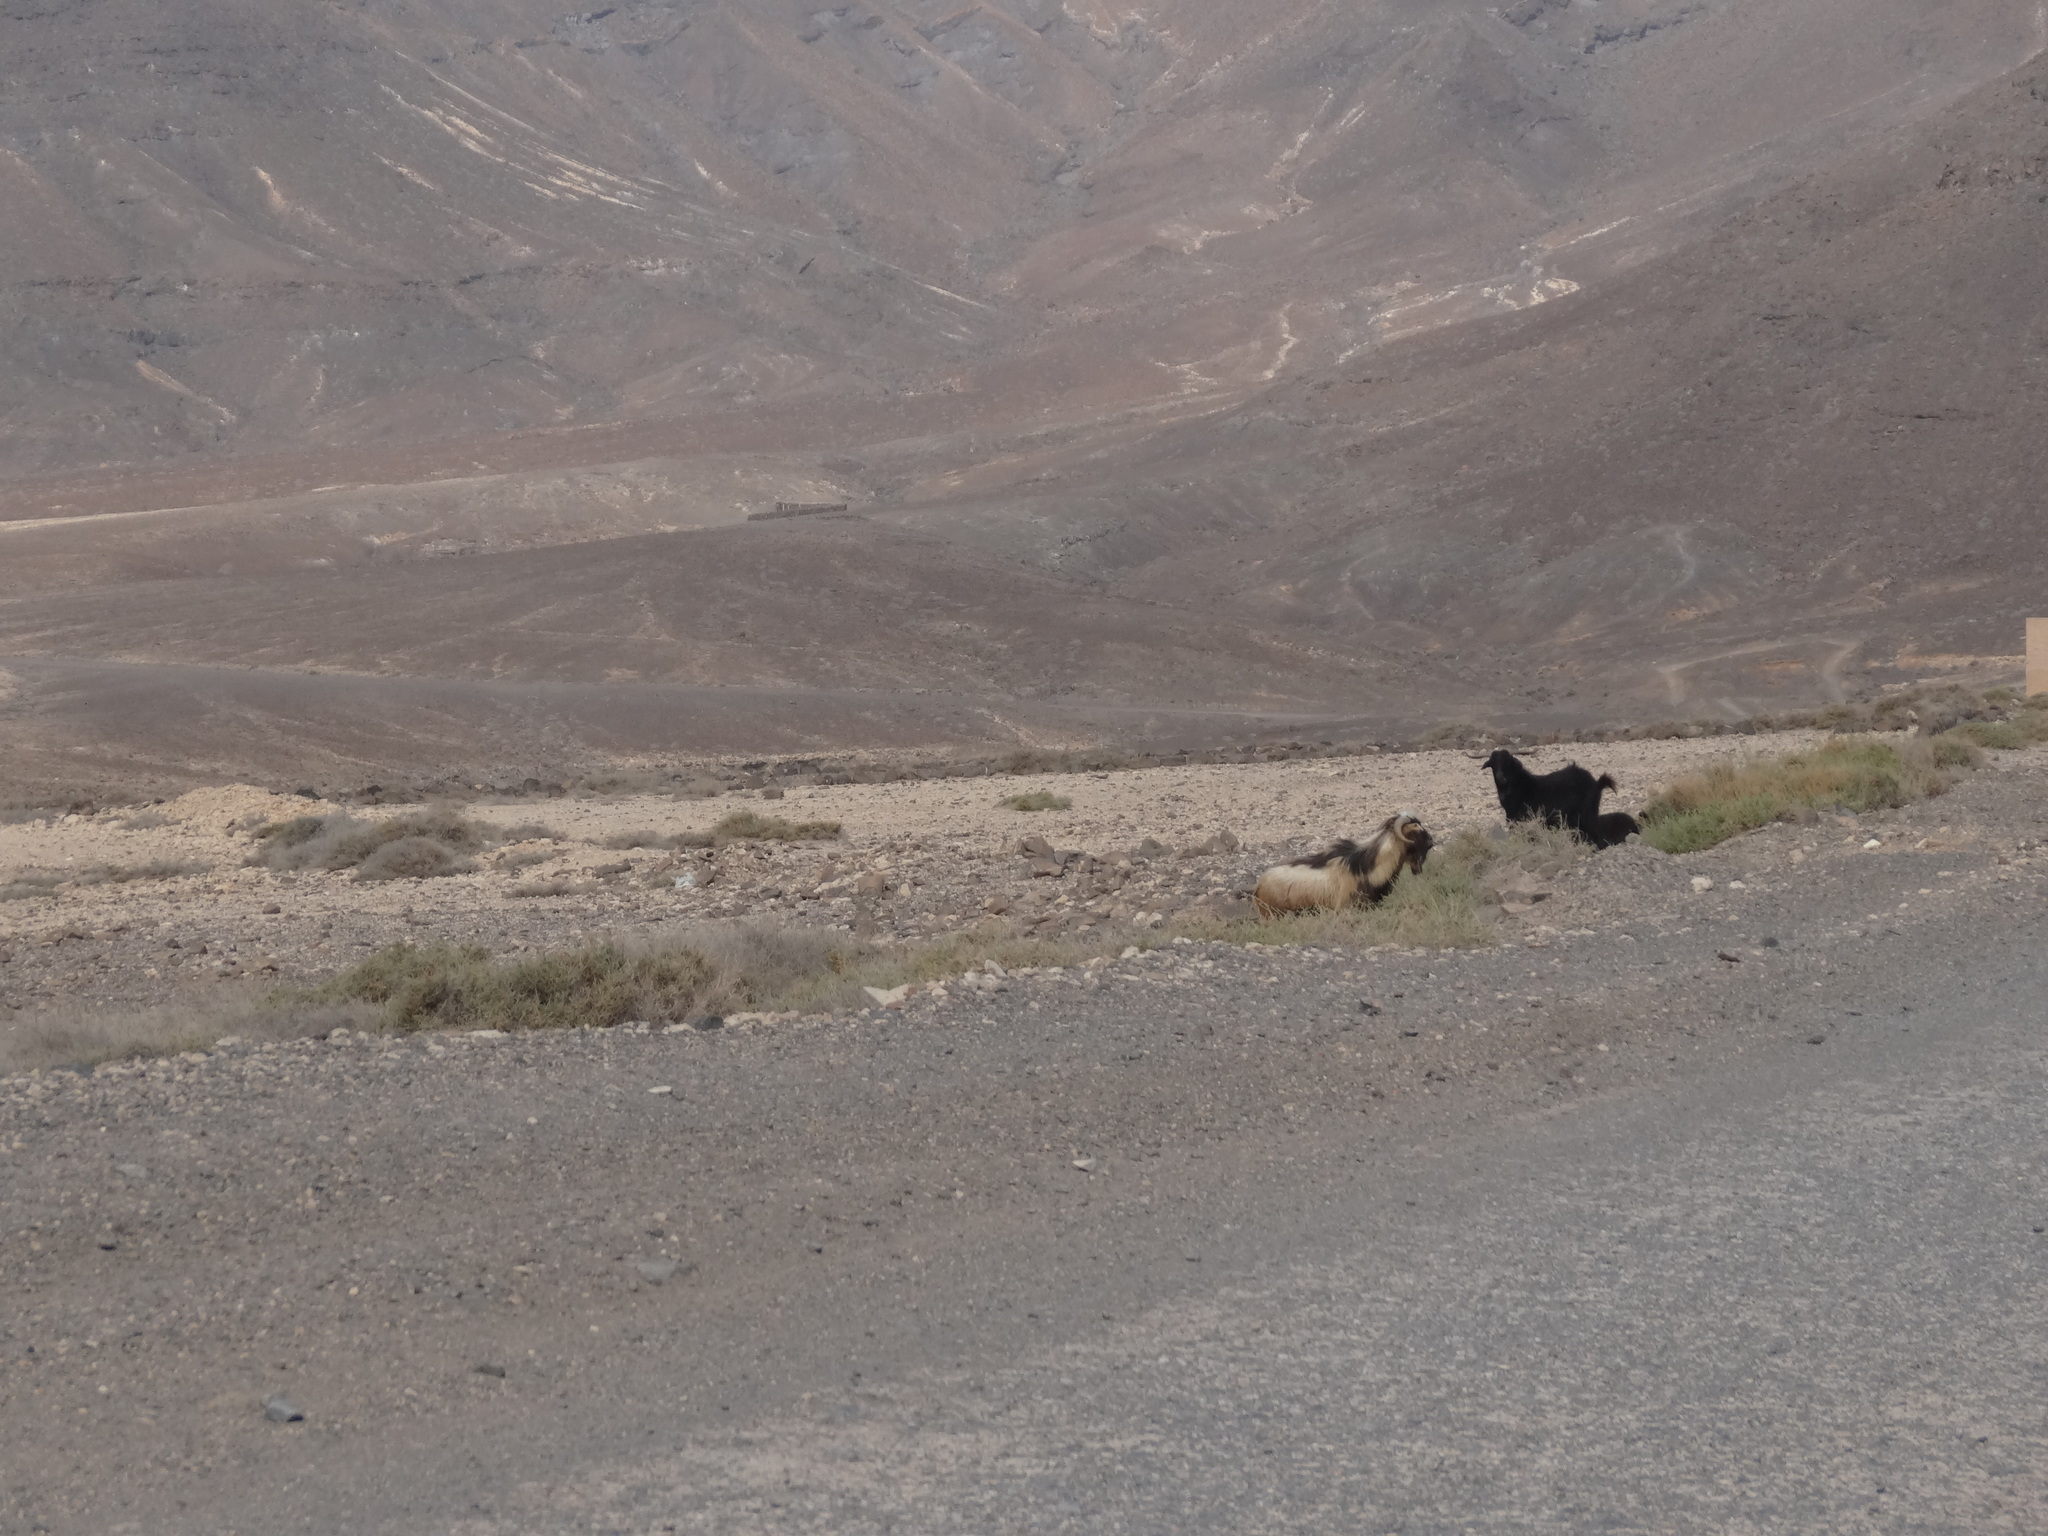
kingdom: Animalia
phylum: Chordata
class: Mammalia
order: Artiodactyla
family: Bovidae
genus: Capra
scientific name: Capra hircus
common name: Domestic goat
